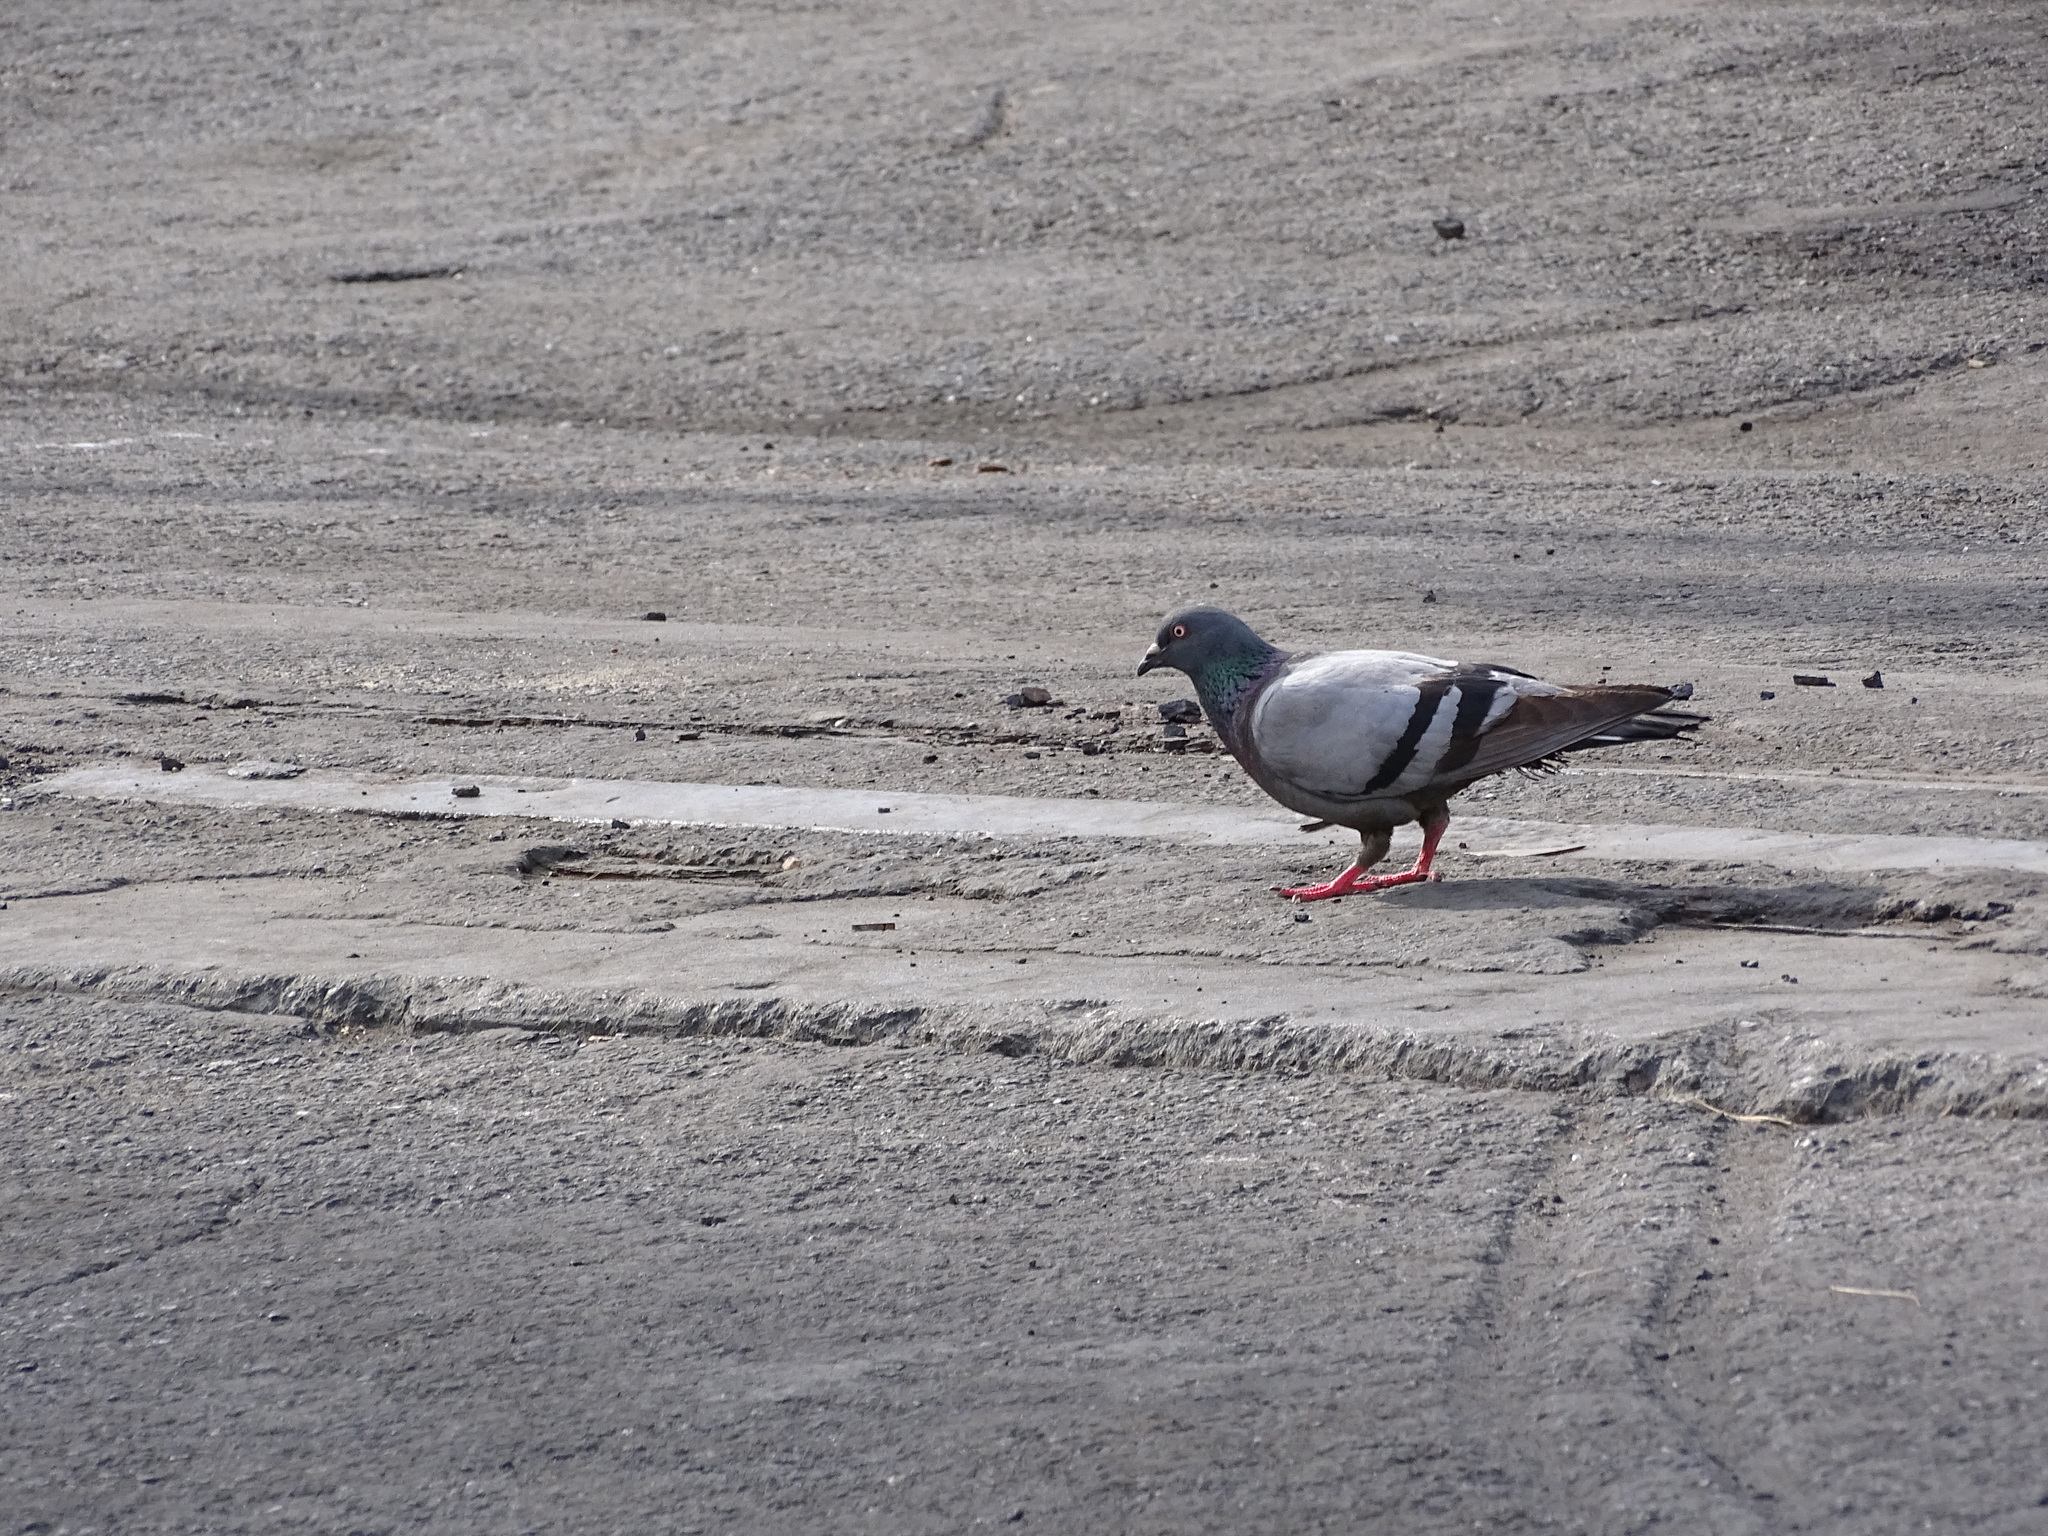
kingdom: Animalia
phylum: Chordata
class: Aves
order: Columbiformes
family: Columbidae
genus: Columba
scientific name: Columba livia
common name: Rock pigeon
